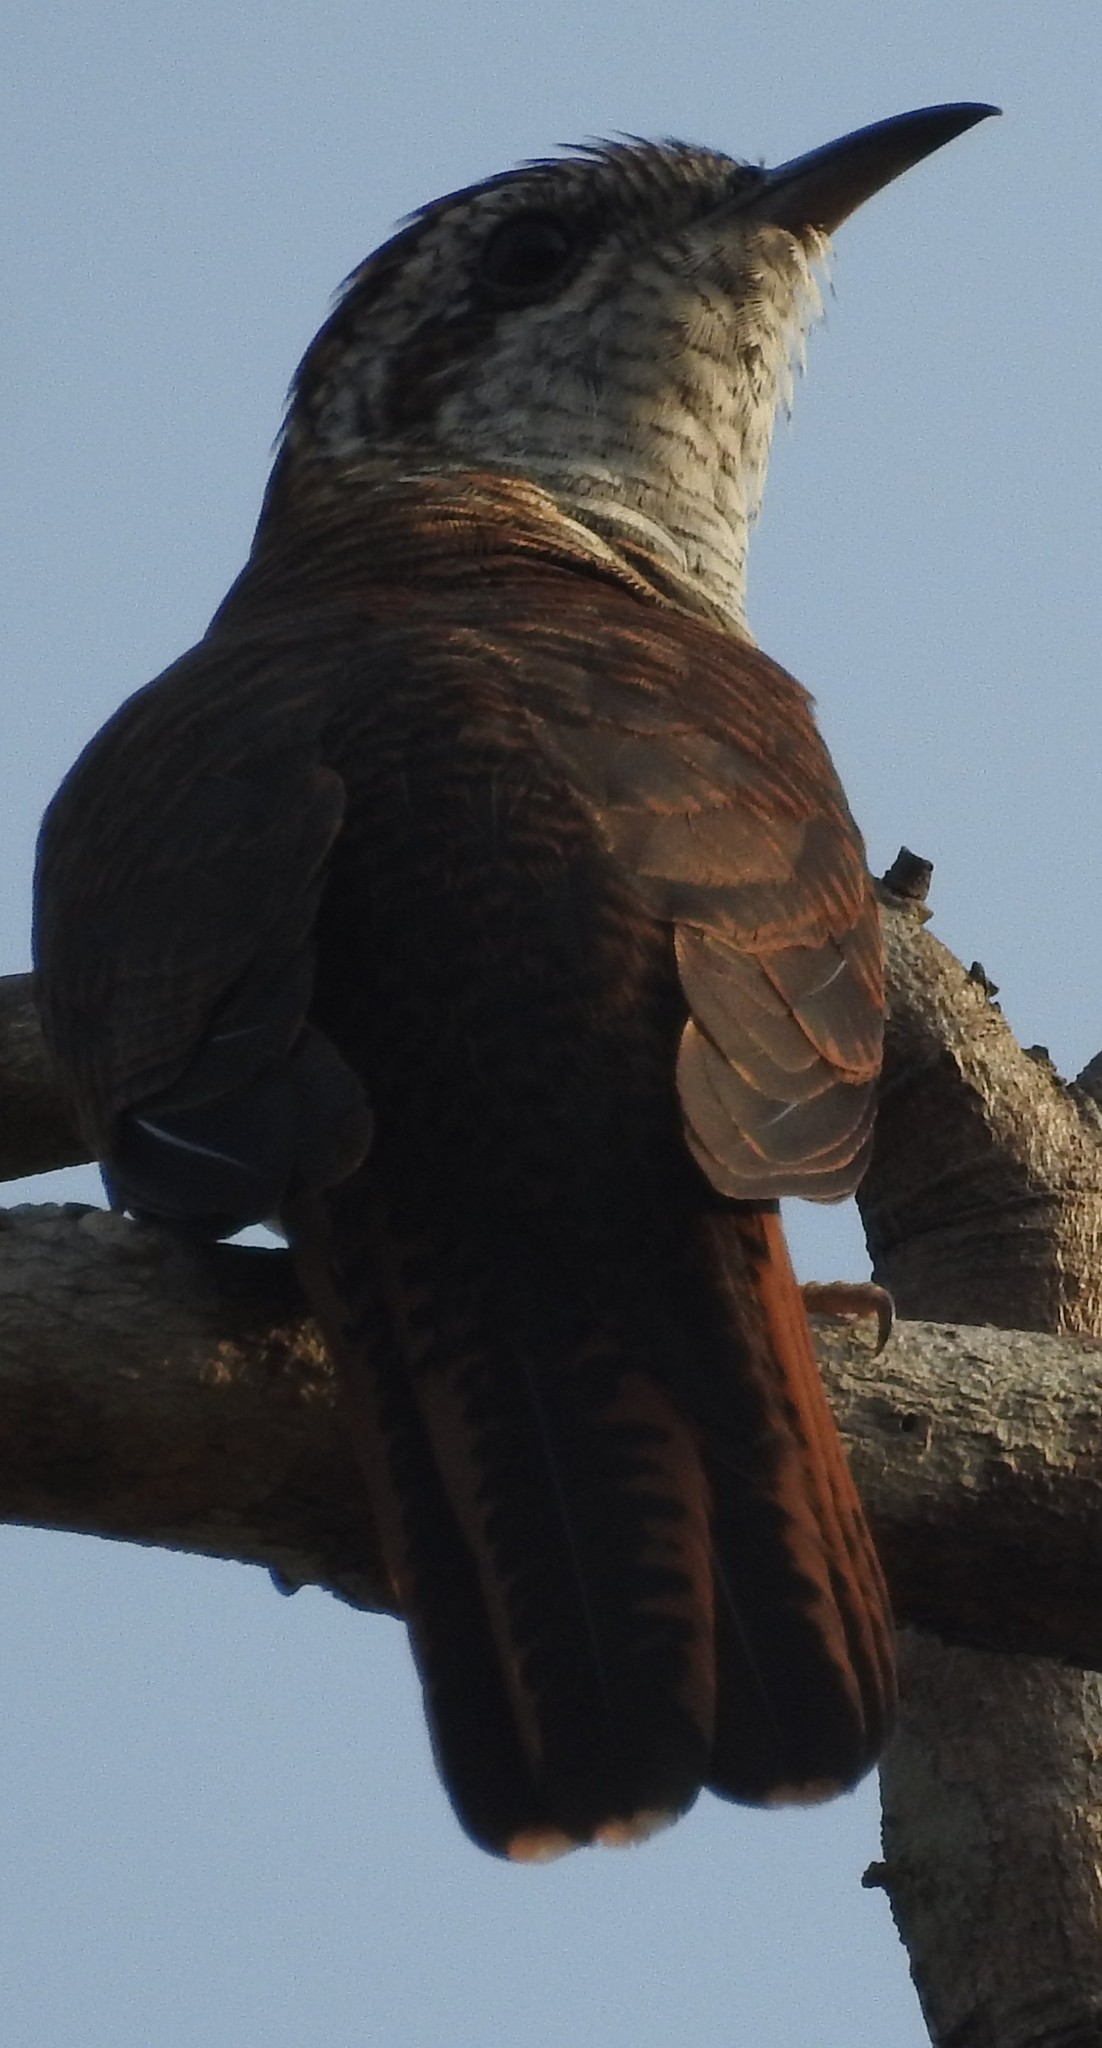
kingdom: Animalia
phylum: Chordata
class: Aves
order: Cuculiformes
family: Cuculidae
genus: Cacomantis
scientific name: Cacomantis sonneratii
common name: Banded bay cuckoo
